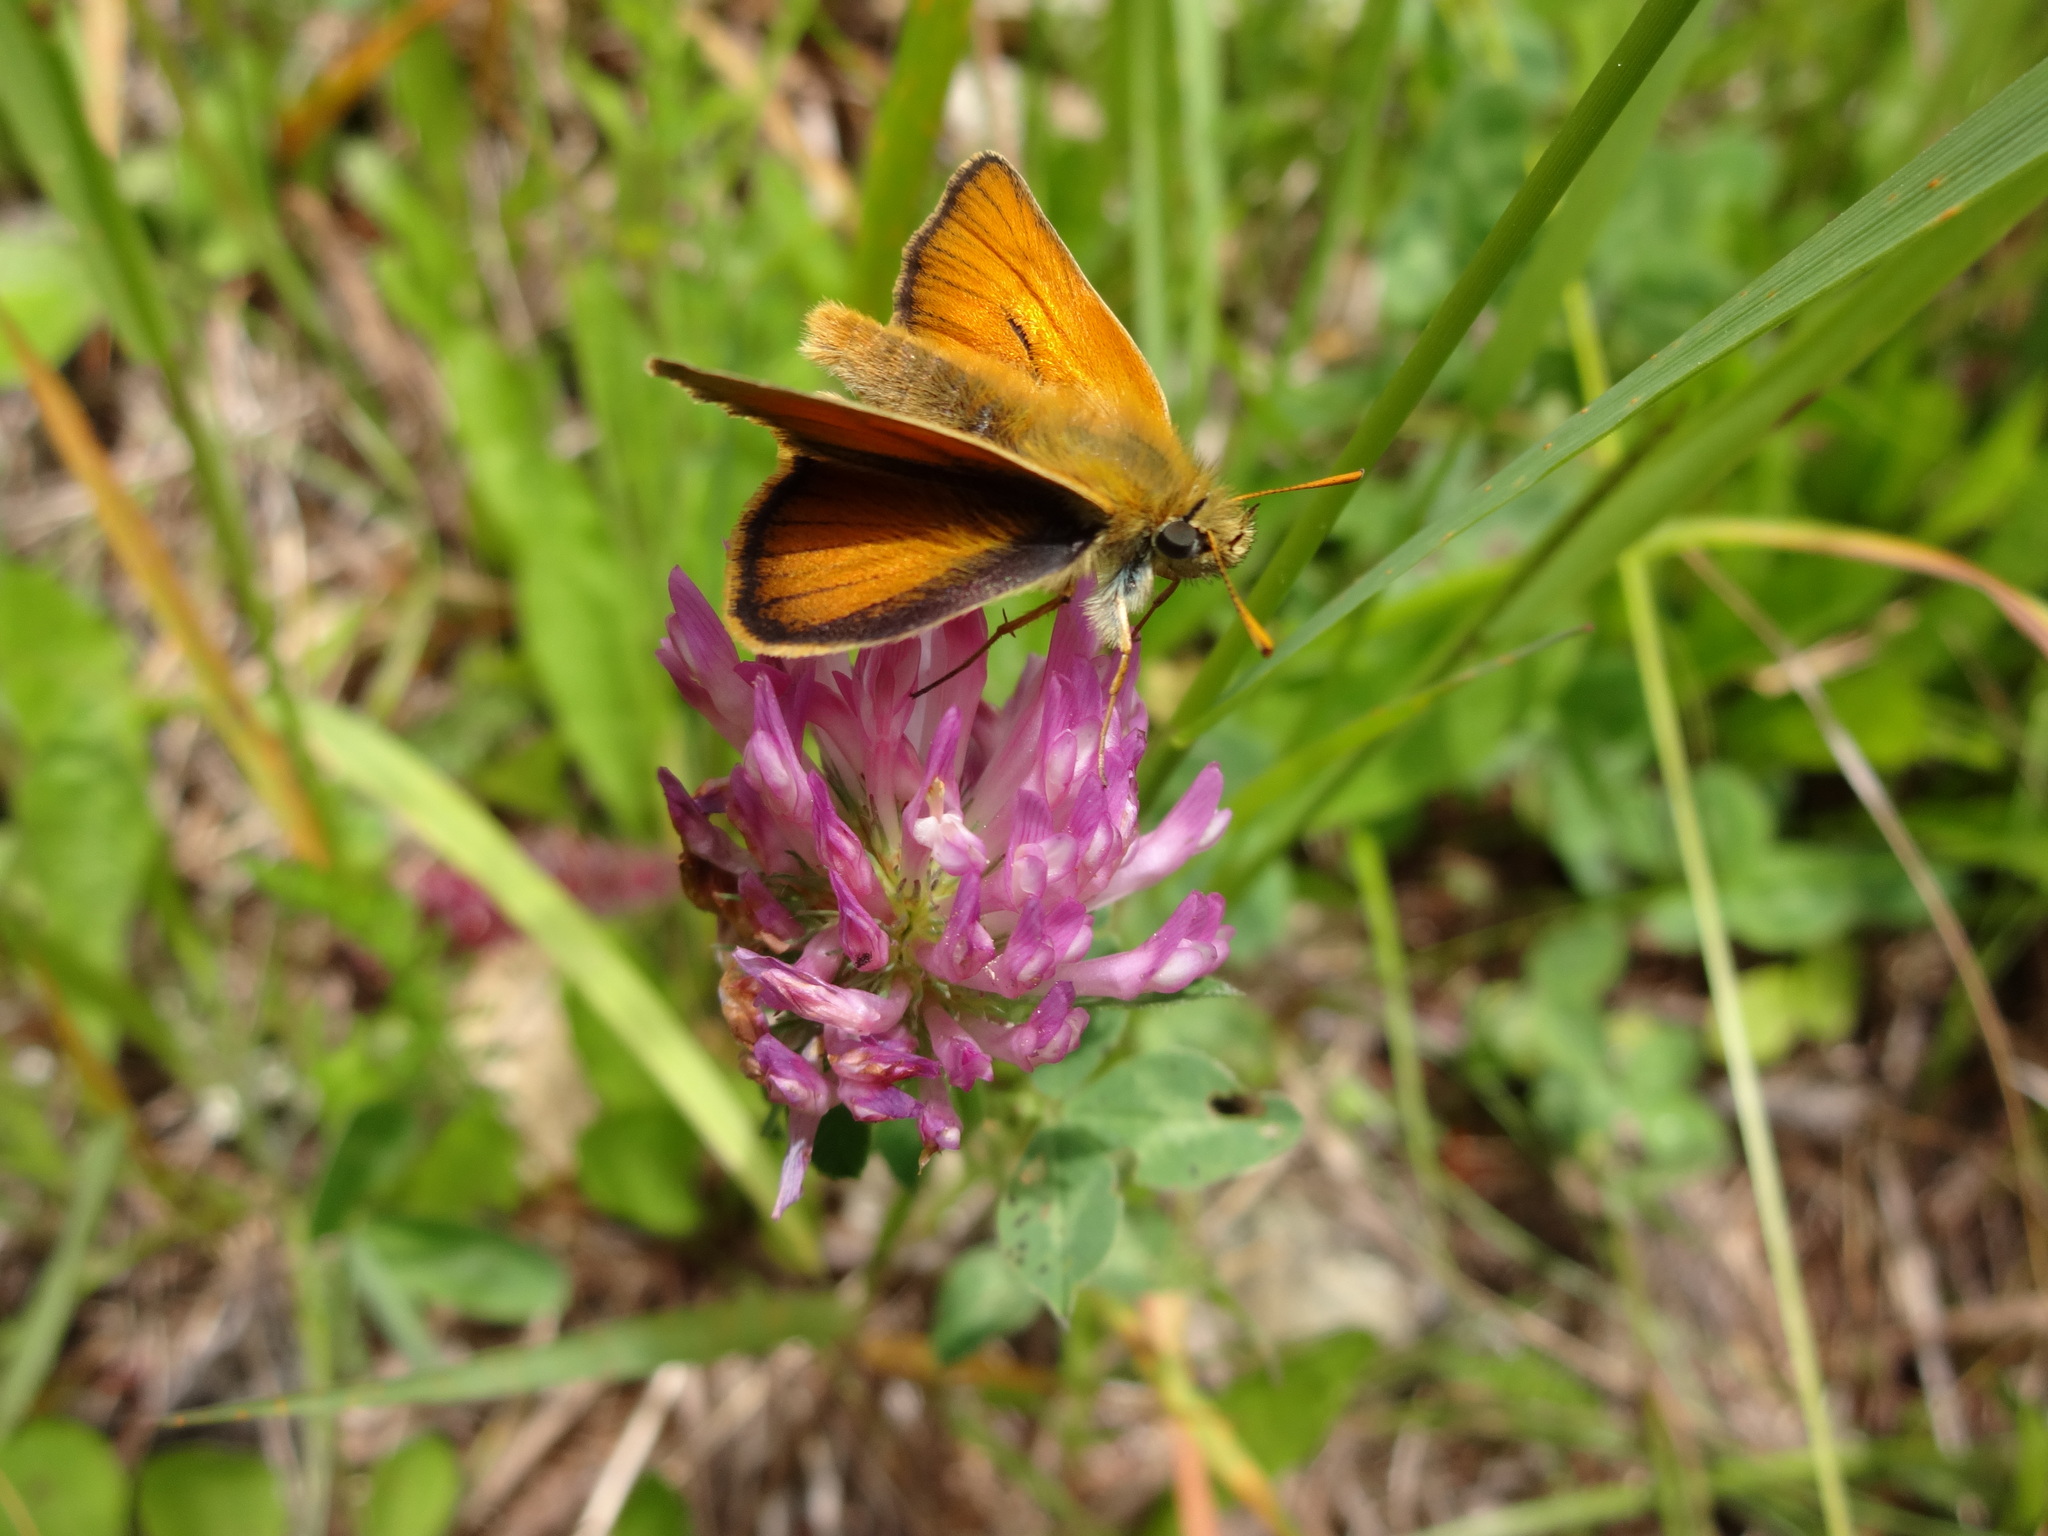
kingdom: Animalia
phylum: Arthropoda
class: Insecta
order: Lepidoptera
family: Hesperiidae
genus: Thymelicus
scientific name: Thymelicus sylvestris
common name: Small skipper
